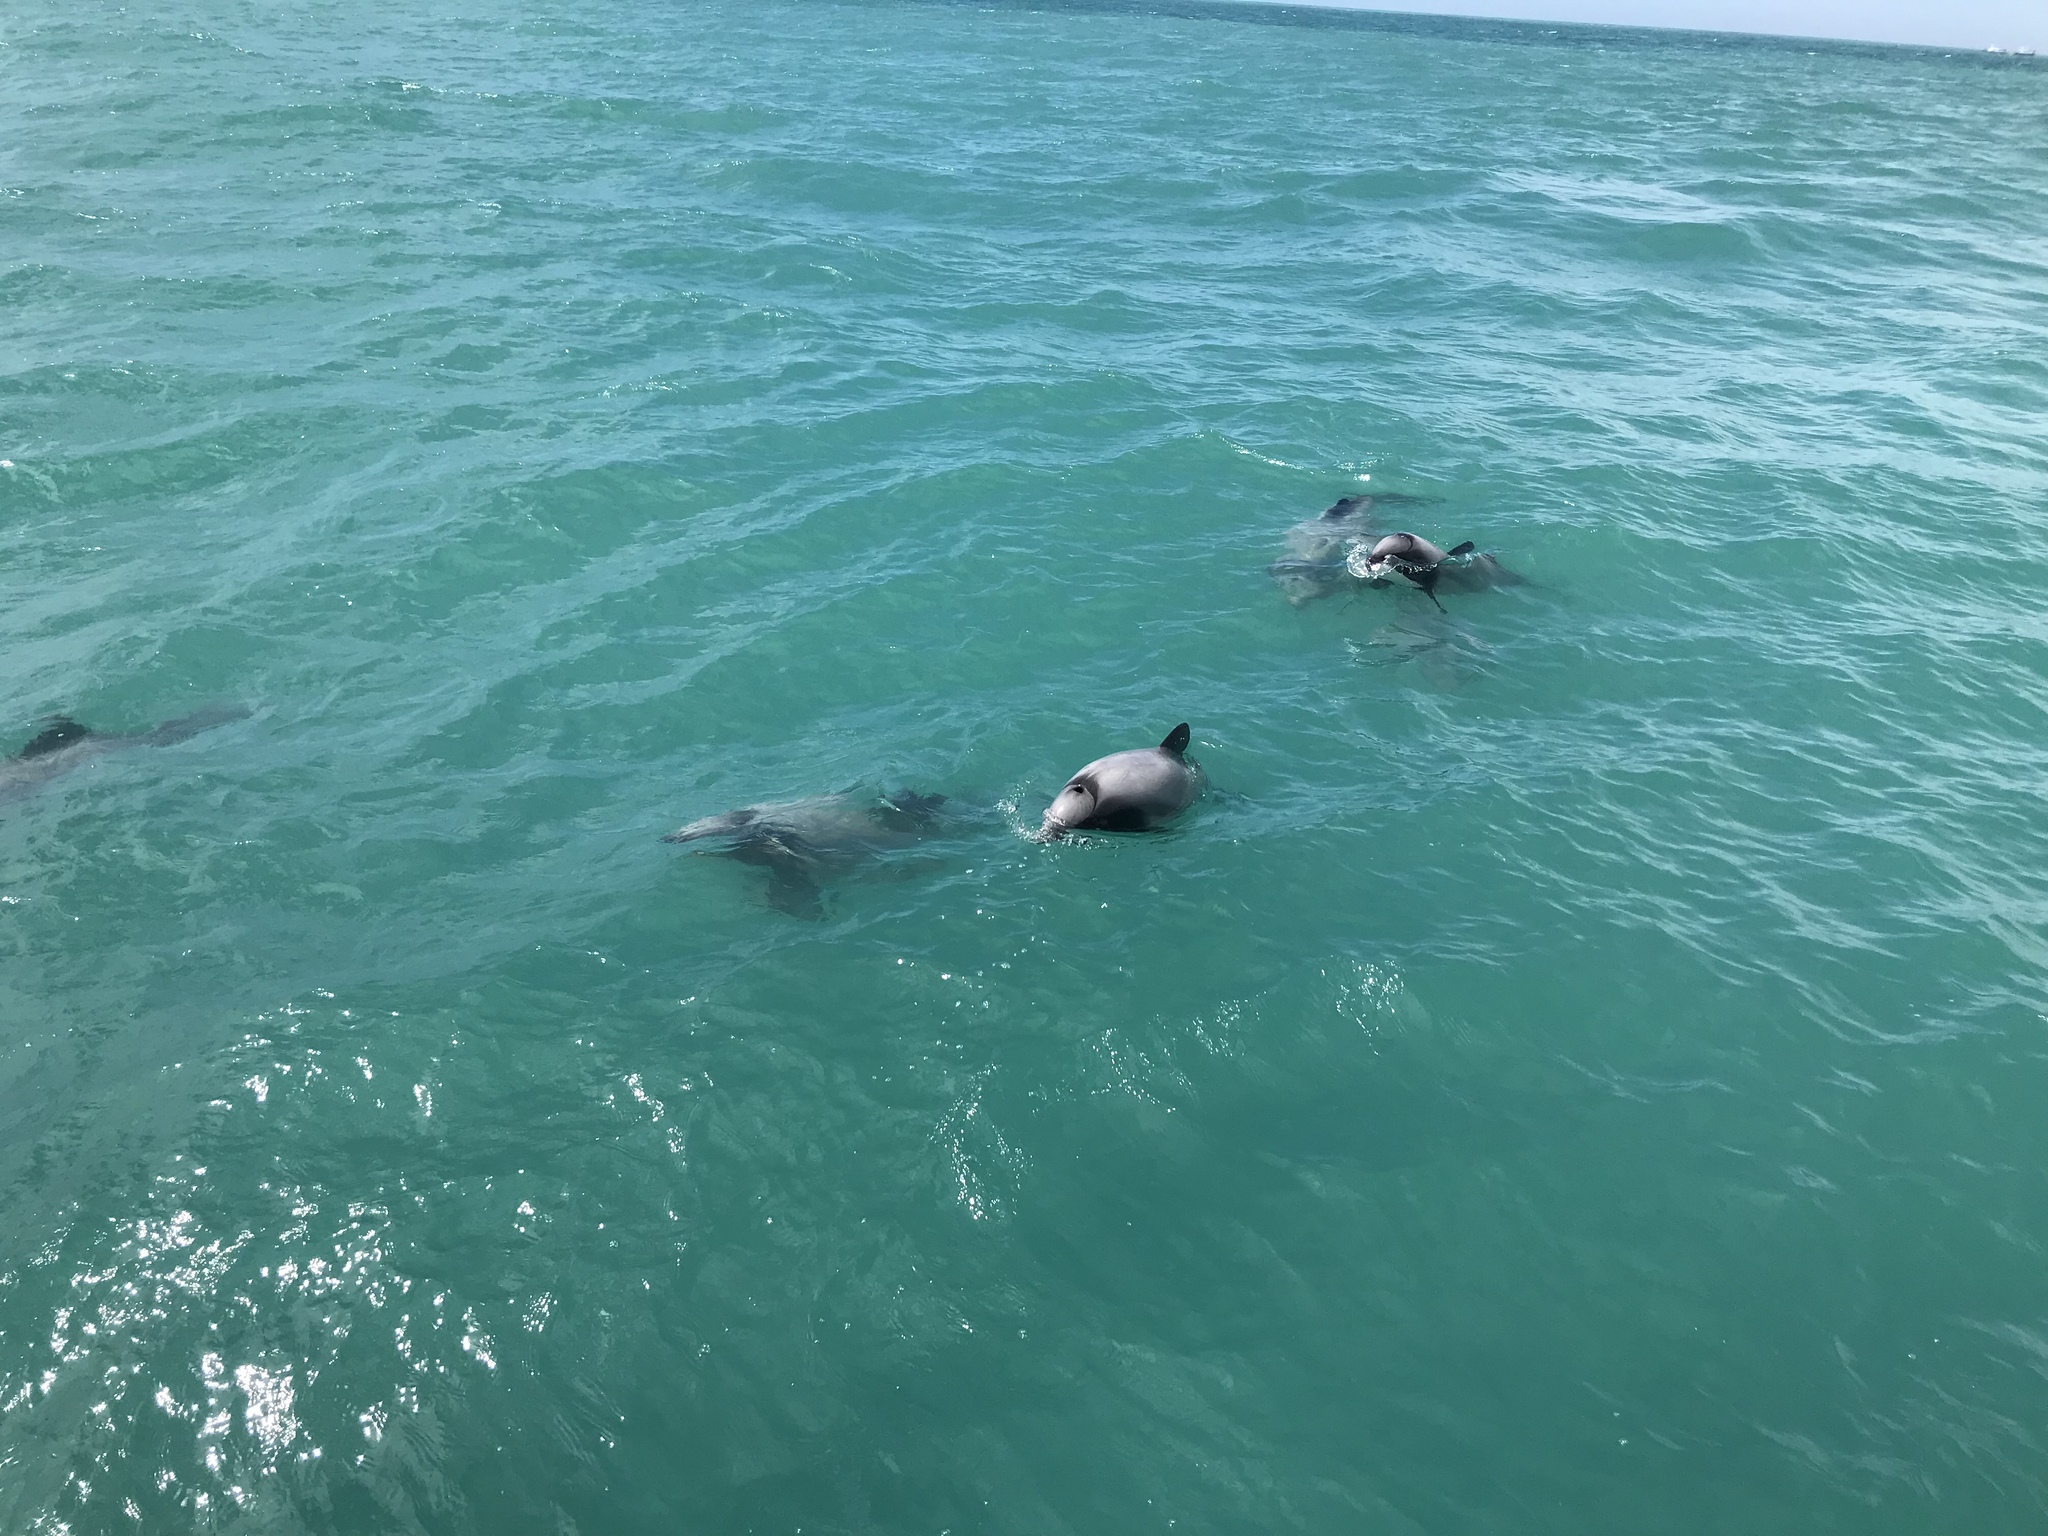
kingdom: Animalia
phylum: Chordata
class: Mammalia
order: Cetacea
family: Delphinidae
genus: Cephalorhynchus
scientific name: Cephalorhynchus hectori
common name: Hector's dolphin
